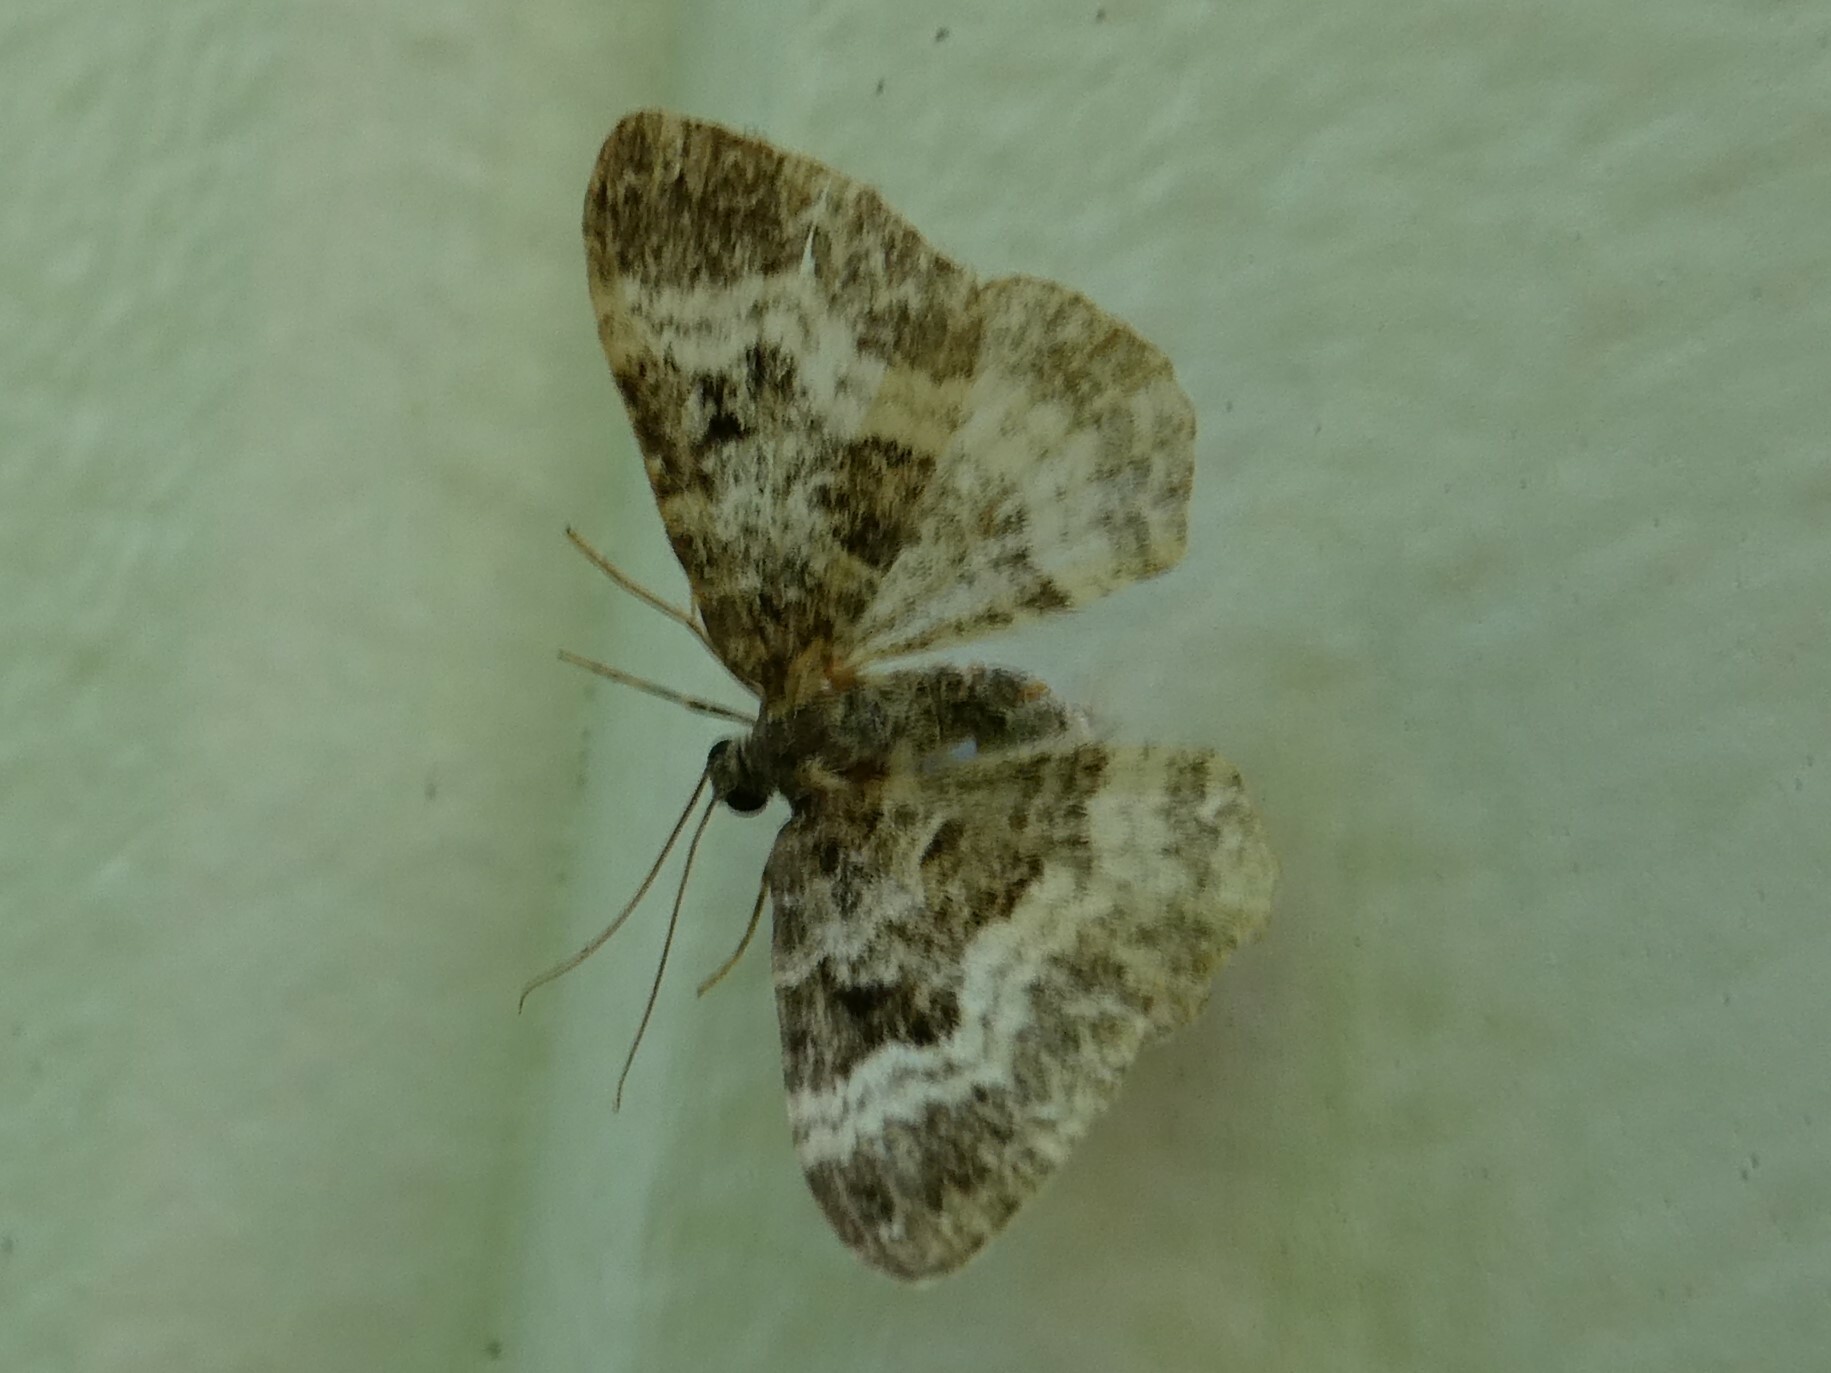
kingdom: Animalia
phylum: Arthropoda
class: Insecta
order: Lepidoptera
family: Geometridae
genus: Epirrhoe
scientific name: Epirrhoe alternata
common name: Common carpet
